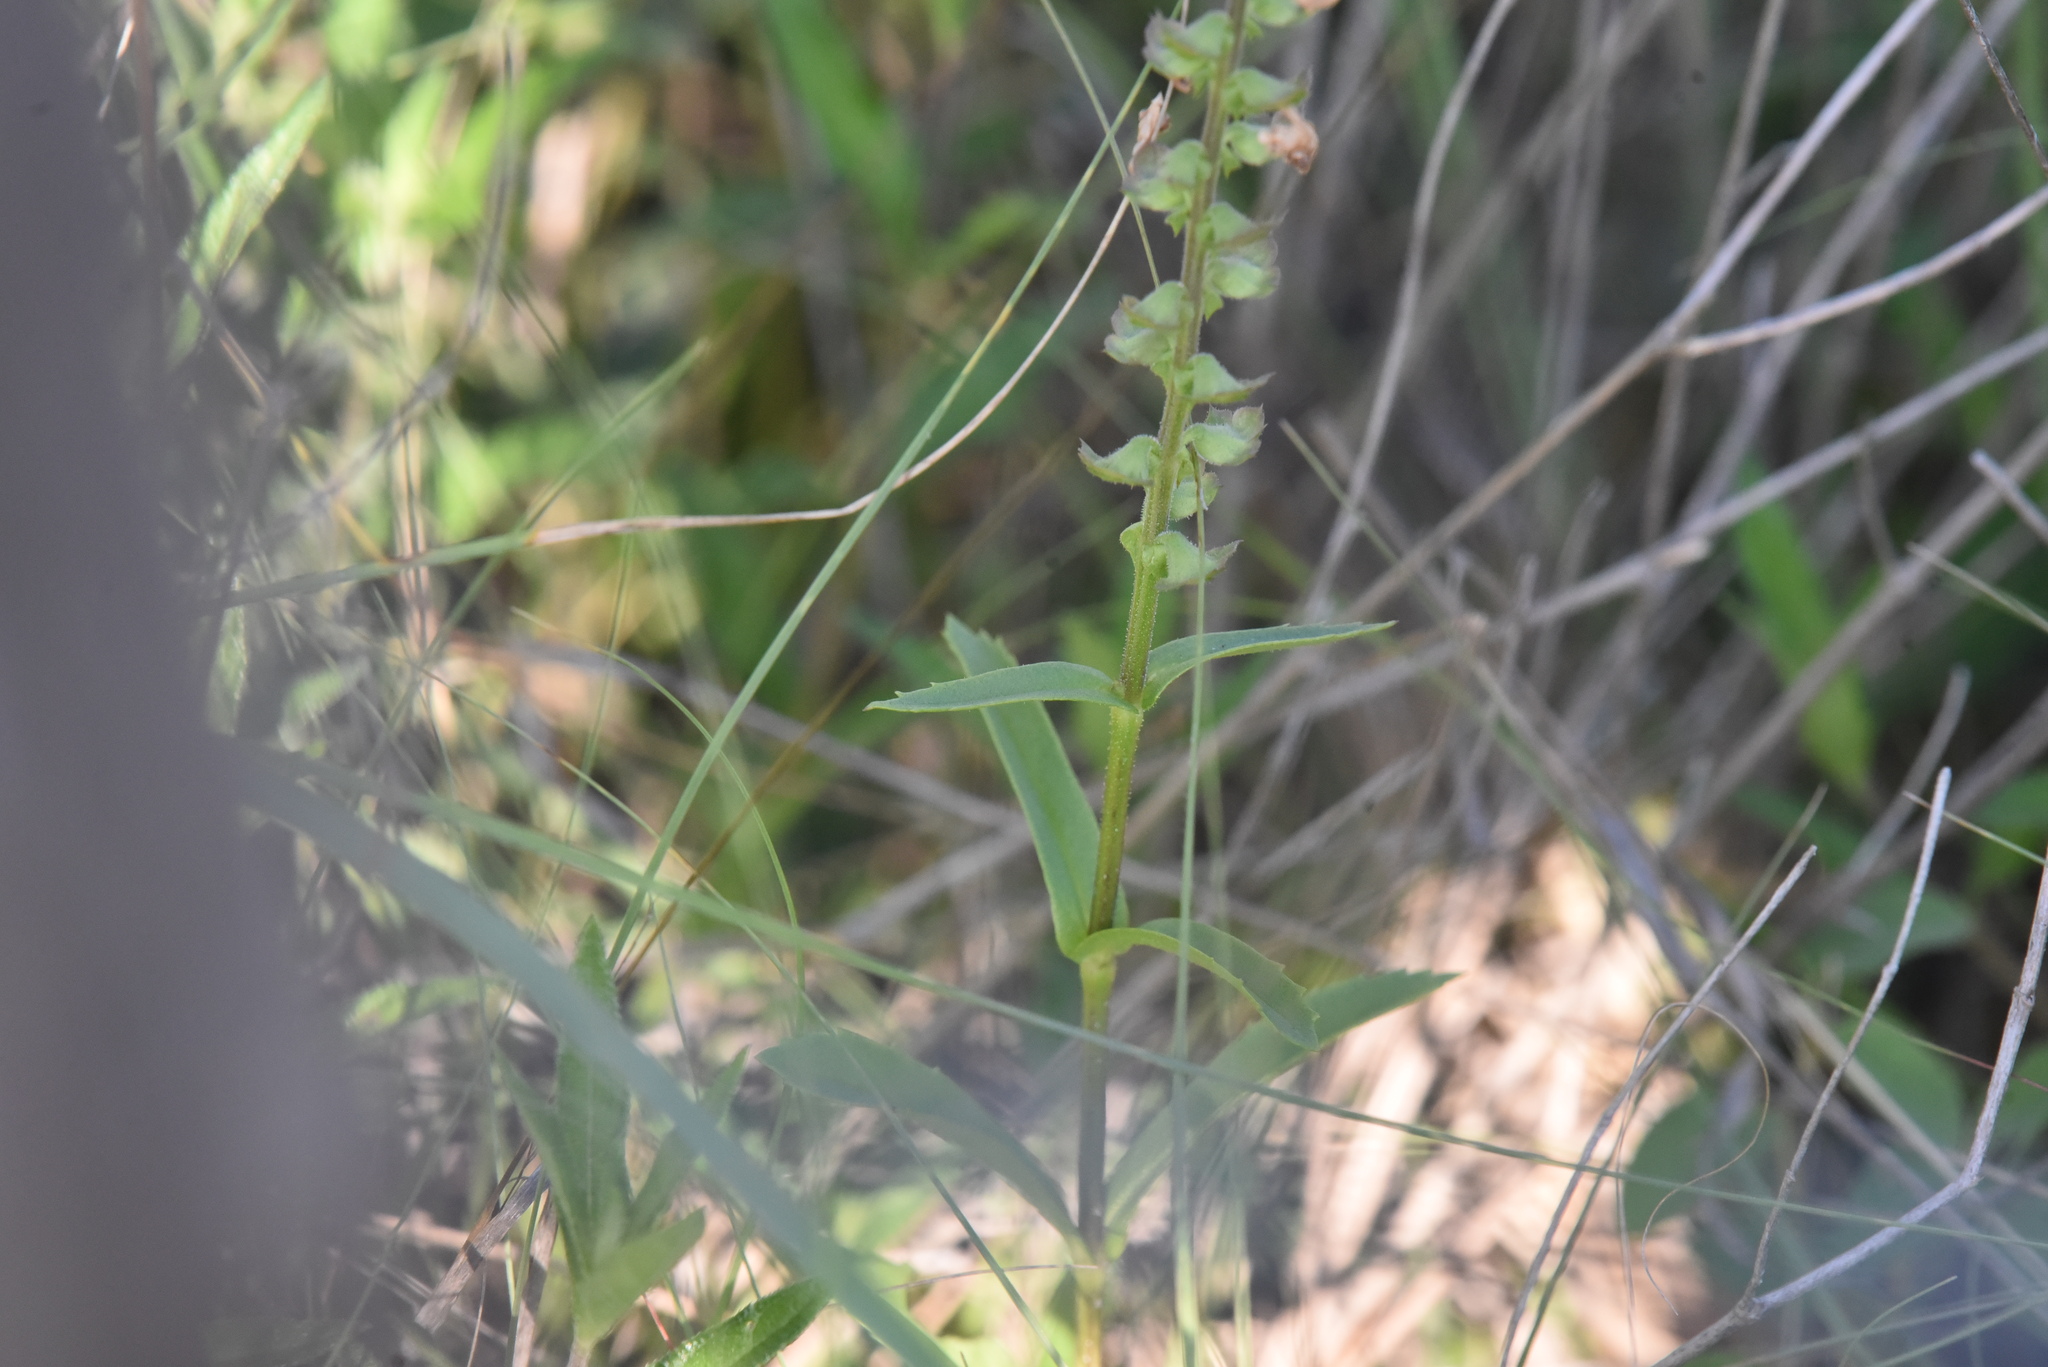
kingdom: Plantae
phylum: Tracheophyta
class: Magnoliopsida
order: Lamiales
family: Lamiaceae
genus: Warnockia
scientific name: Warnockia scutellarioides
